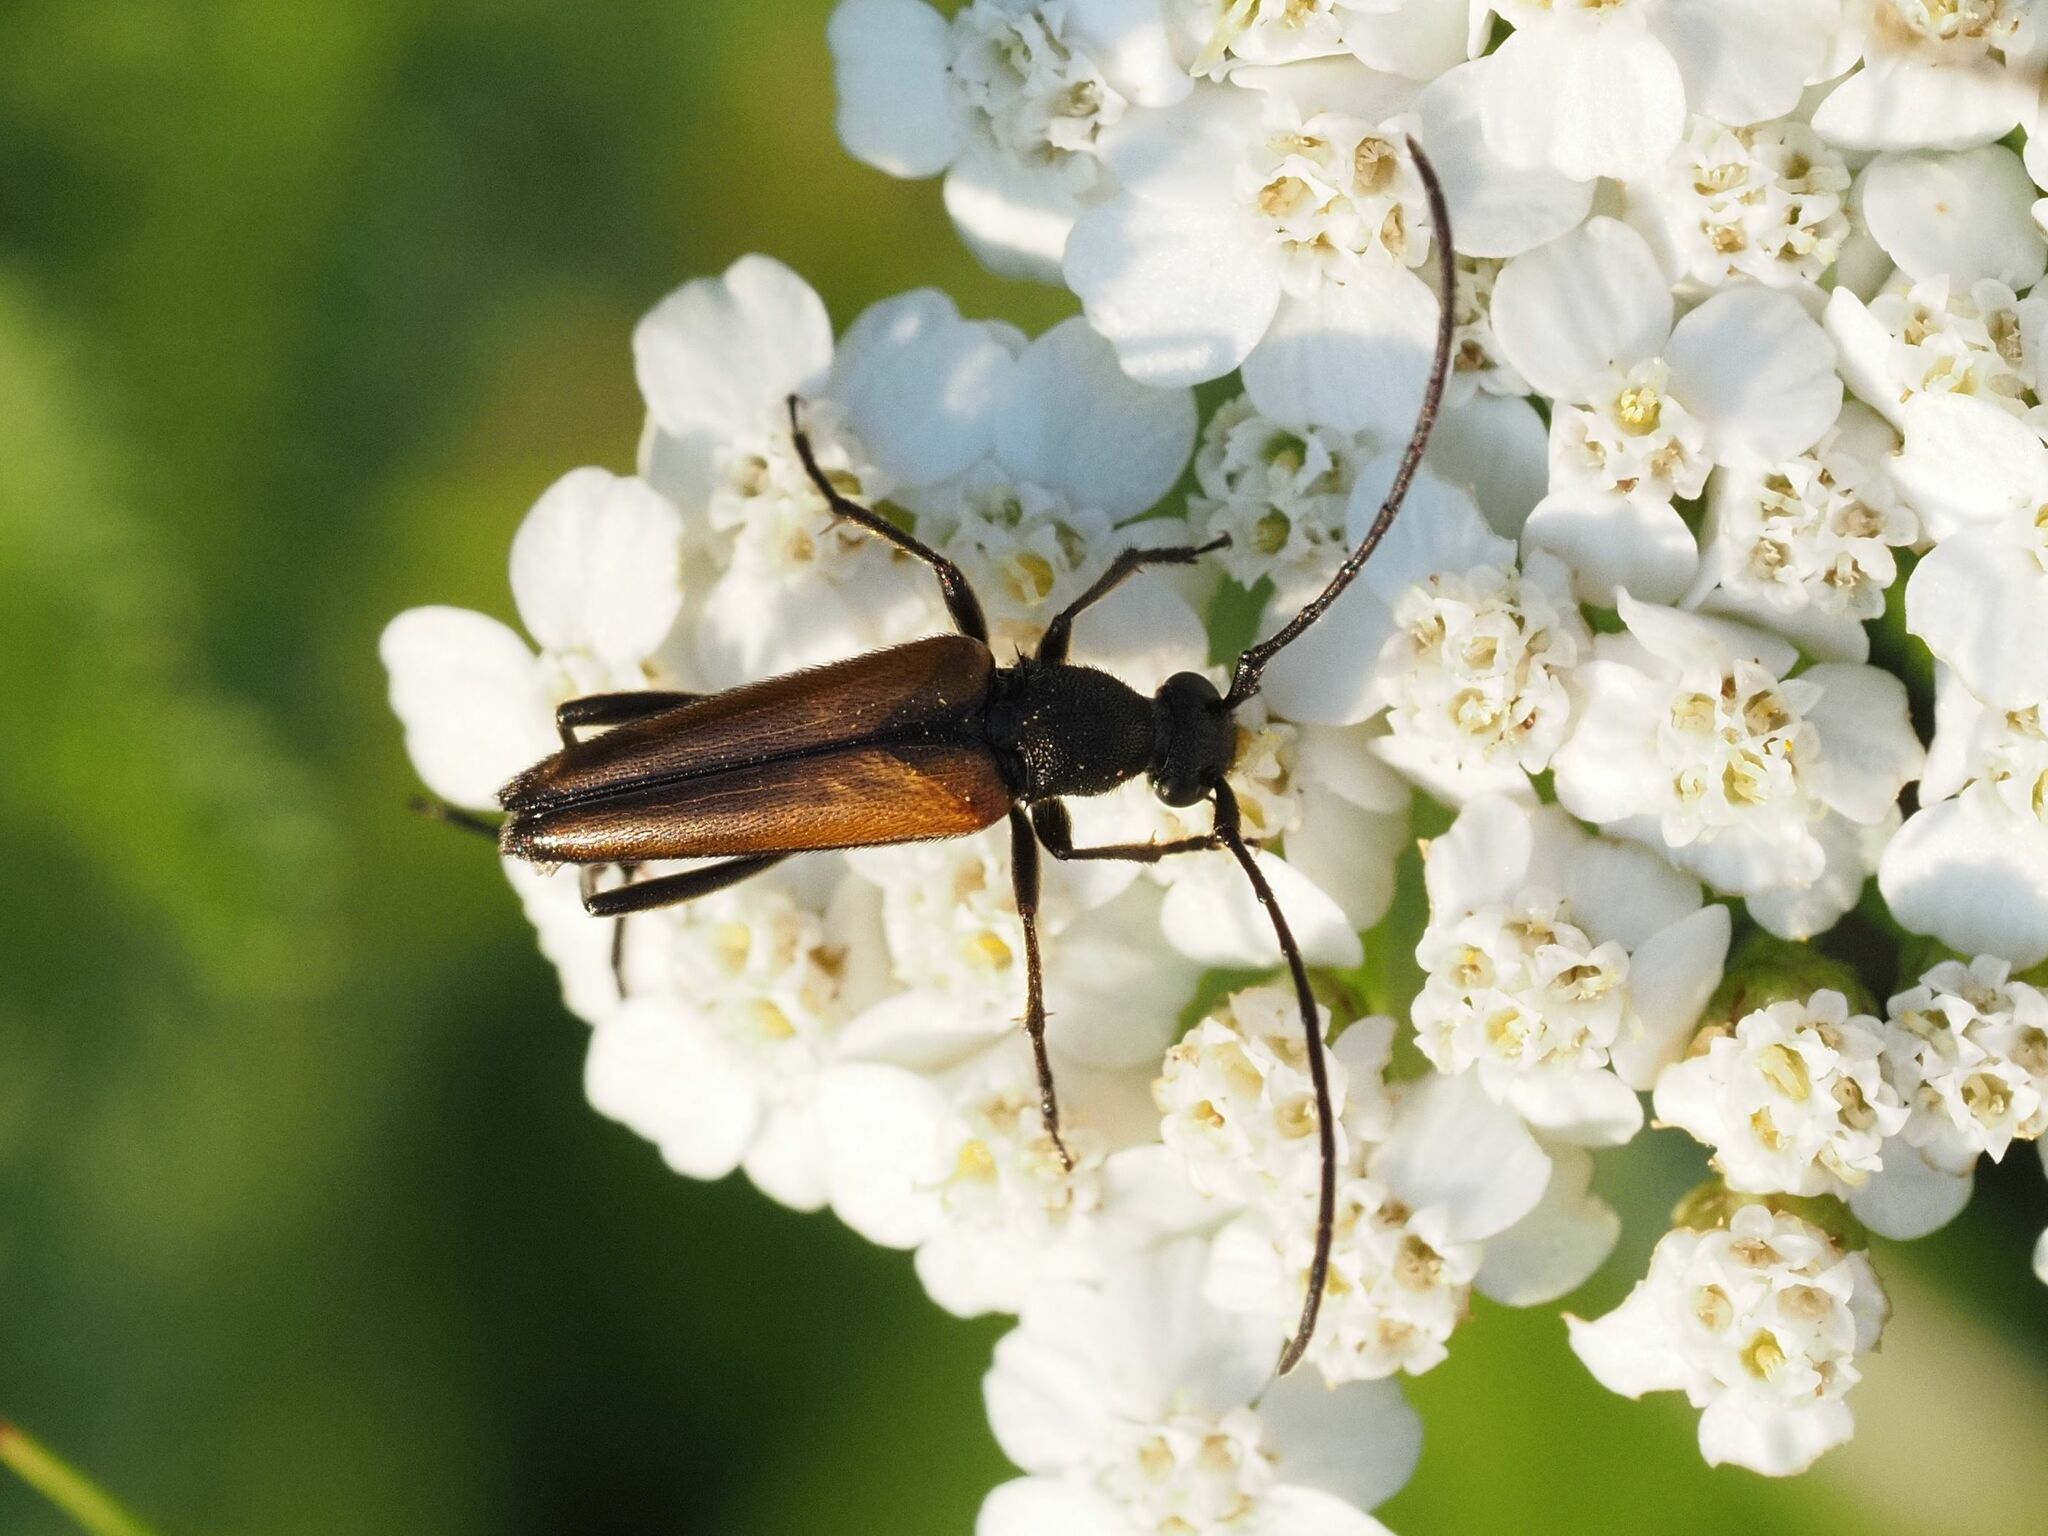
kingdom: Animalia
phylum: Arthropoda
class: Insecta
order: Coleoptera
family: Cerambycidae
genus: Stenurella
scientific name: Stenurella melanura
